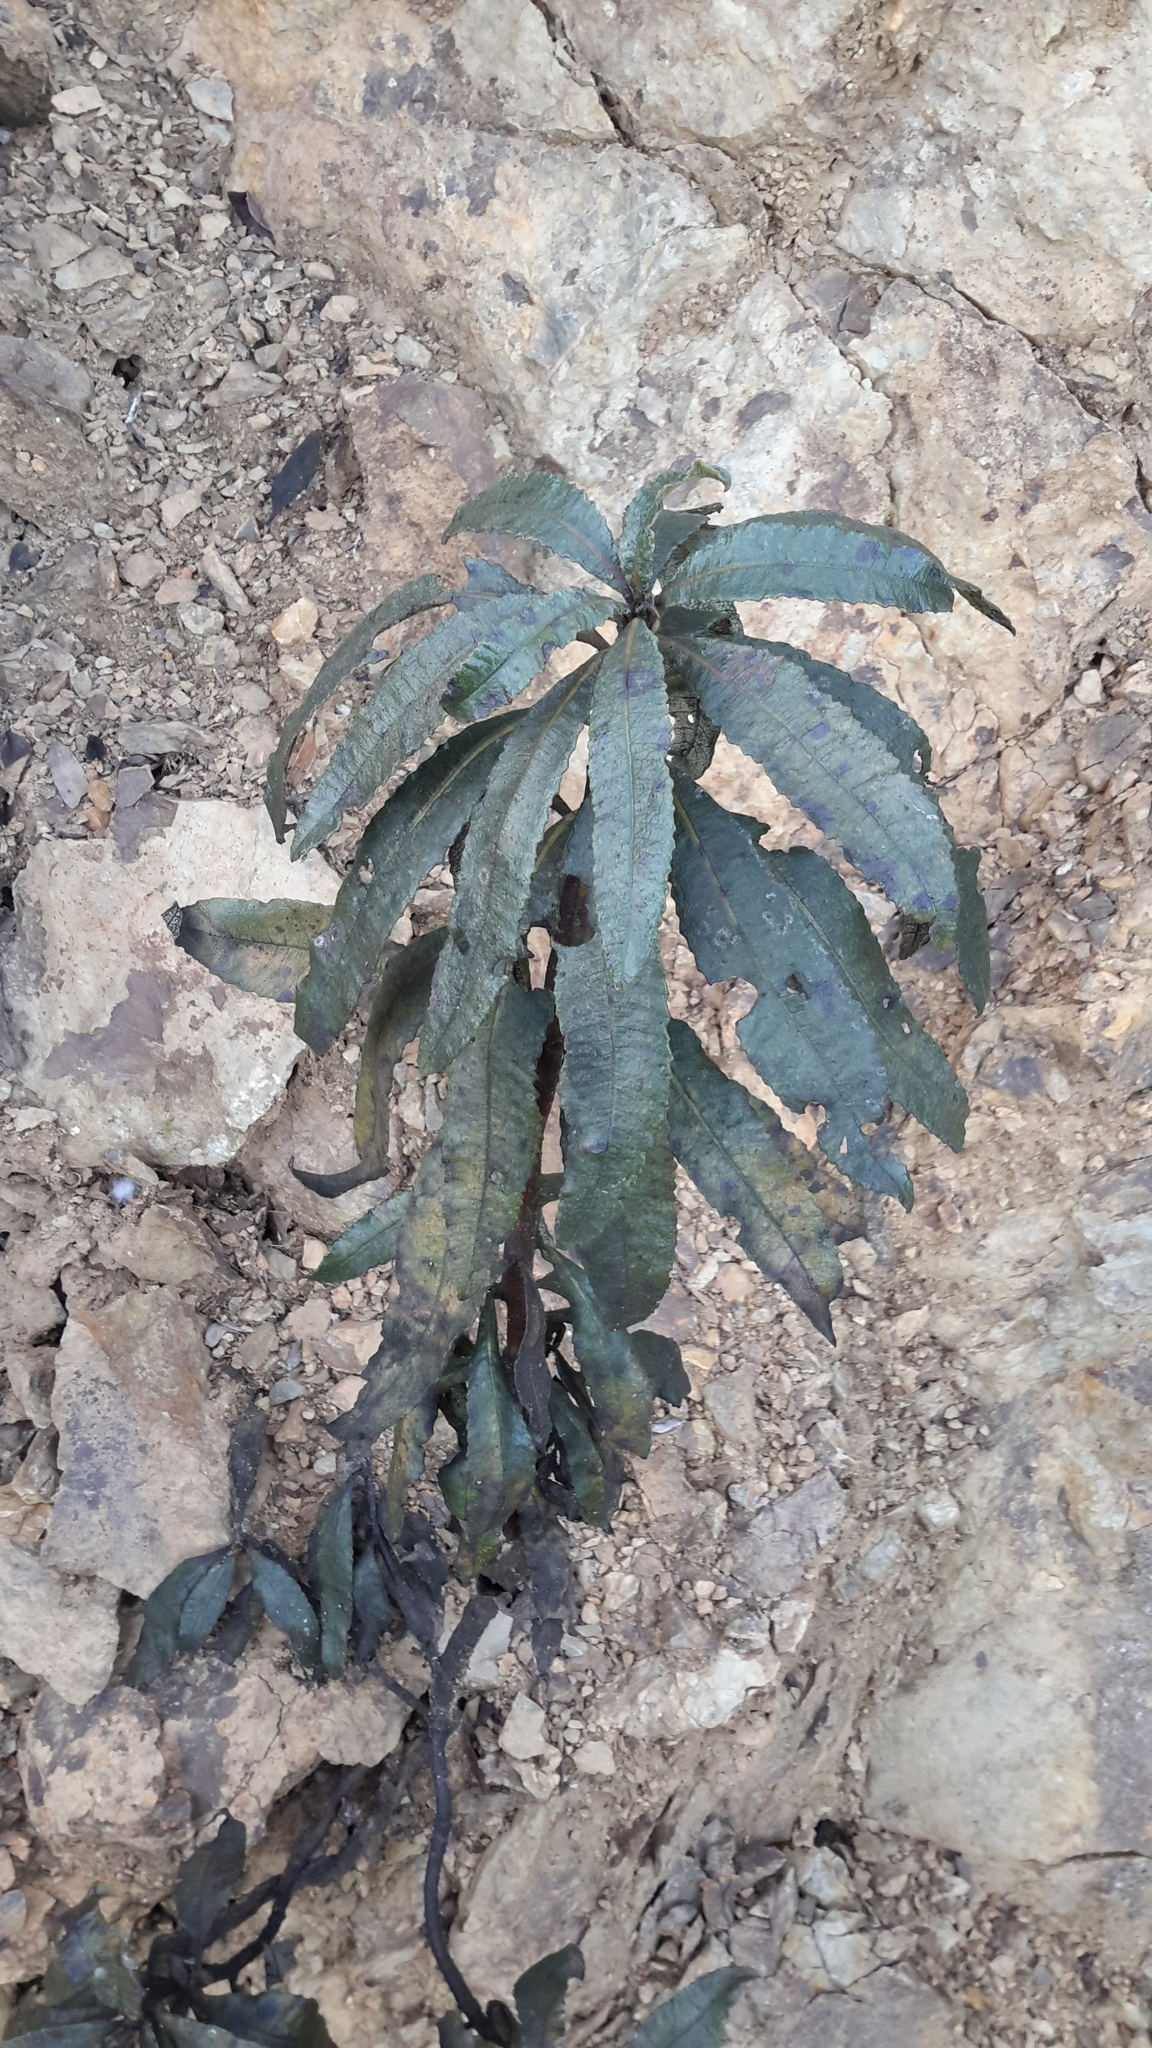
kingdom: Plantae
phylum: Tracheophyta
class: Magnoliopsida
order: Boraginales
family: Namaceae
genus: Eriodictyon
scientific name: Eriodictyon californicum
